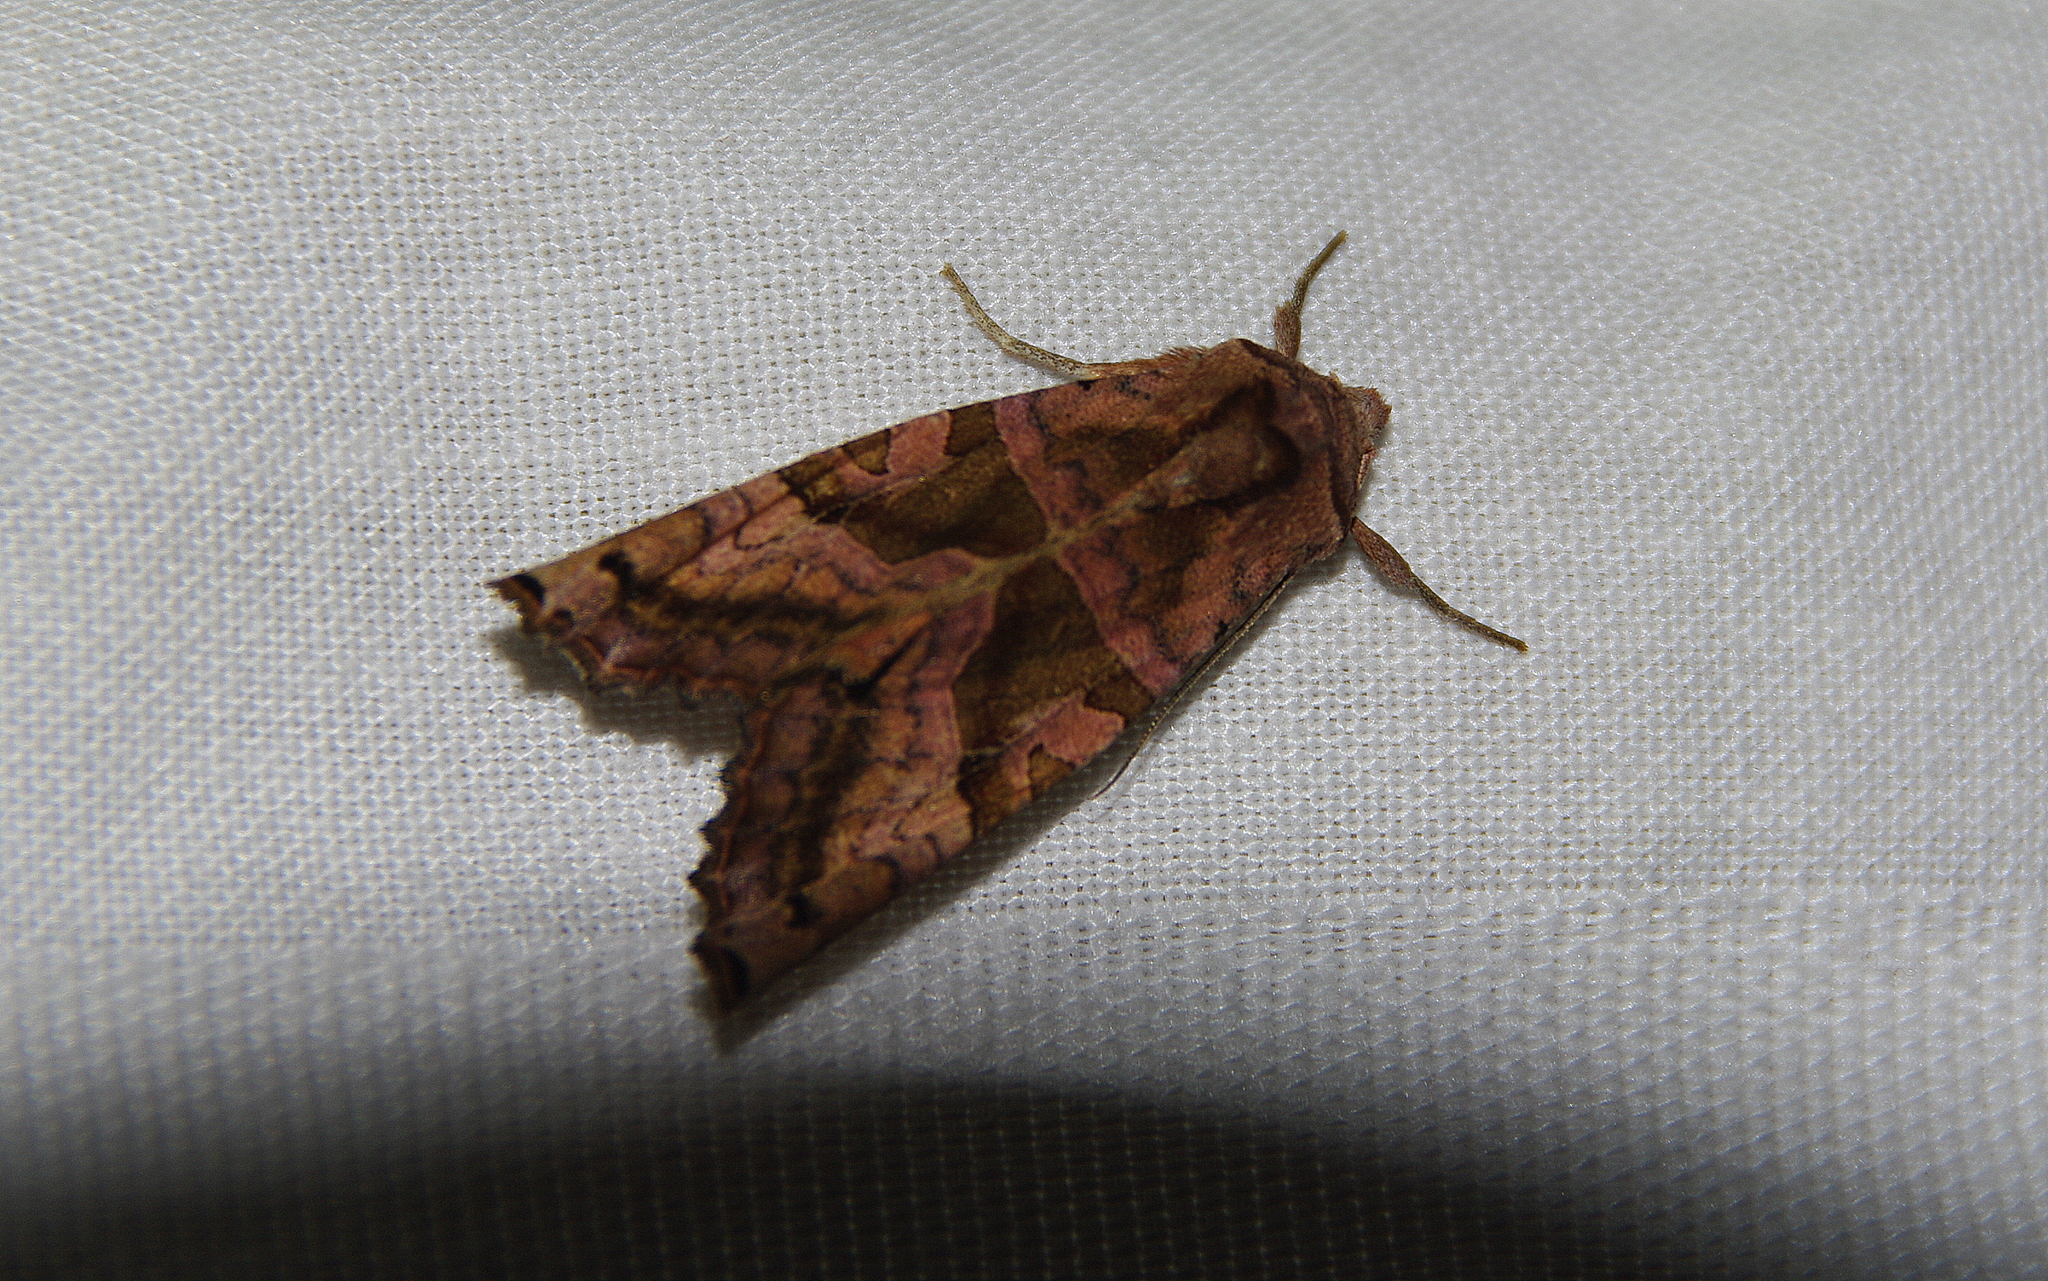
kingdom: Animalia
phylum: Arthropoda
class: Insecta
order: Lepidoptera
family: Noctuidae
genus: Phlogophora
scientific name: Phlogophora periculosa
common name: Brown angle shades
